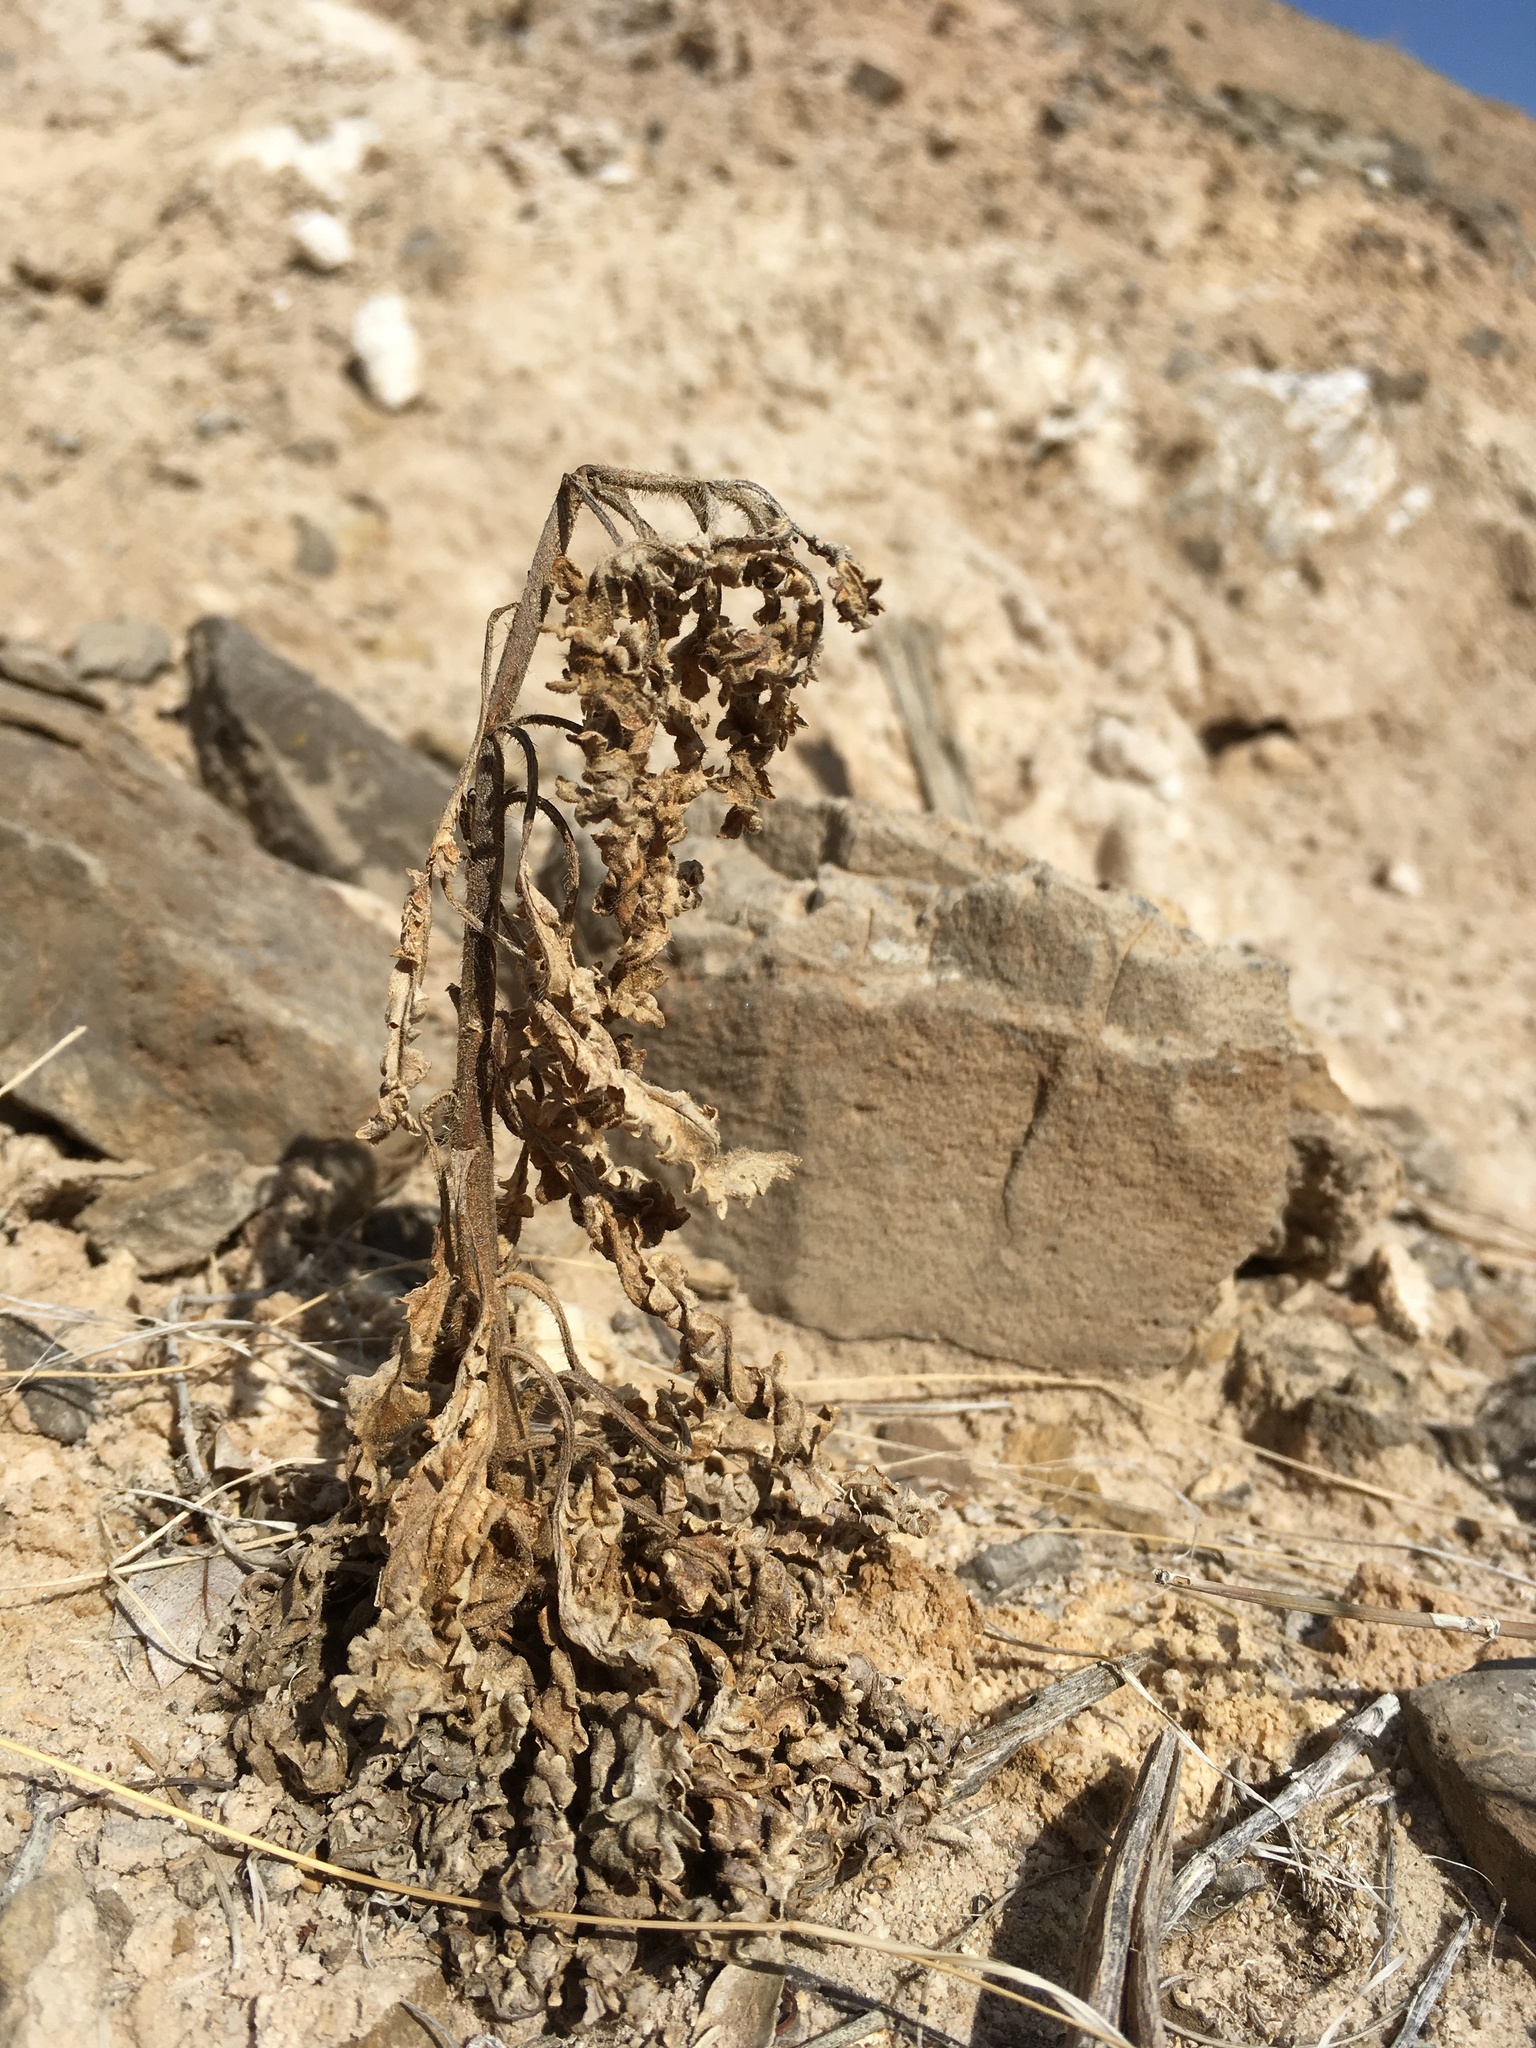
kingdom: Plantae
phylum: Tracheophyta
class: Magnoliopsida
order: Boraginales
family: Hydrophyllaceae
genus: Phacelia
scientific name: Phacelia sivinskii
